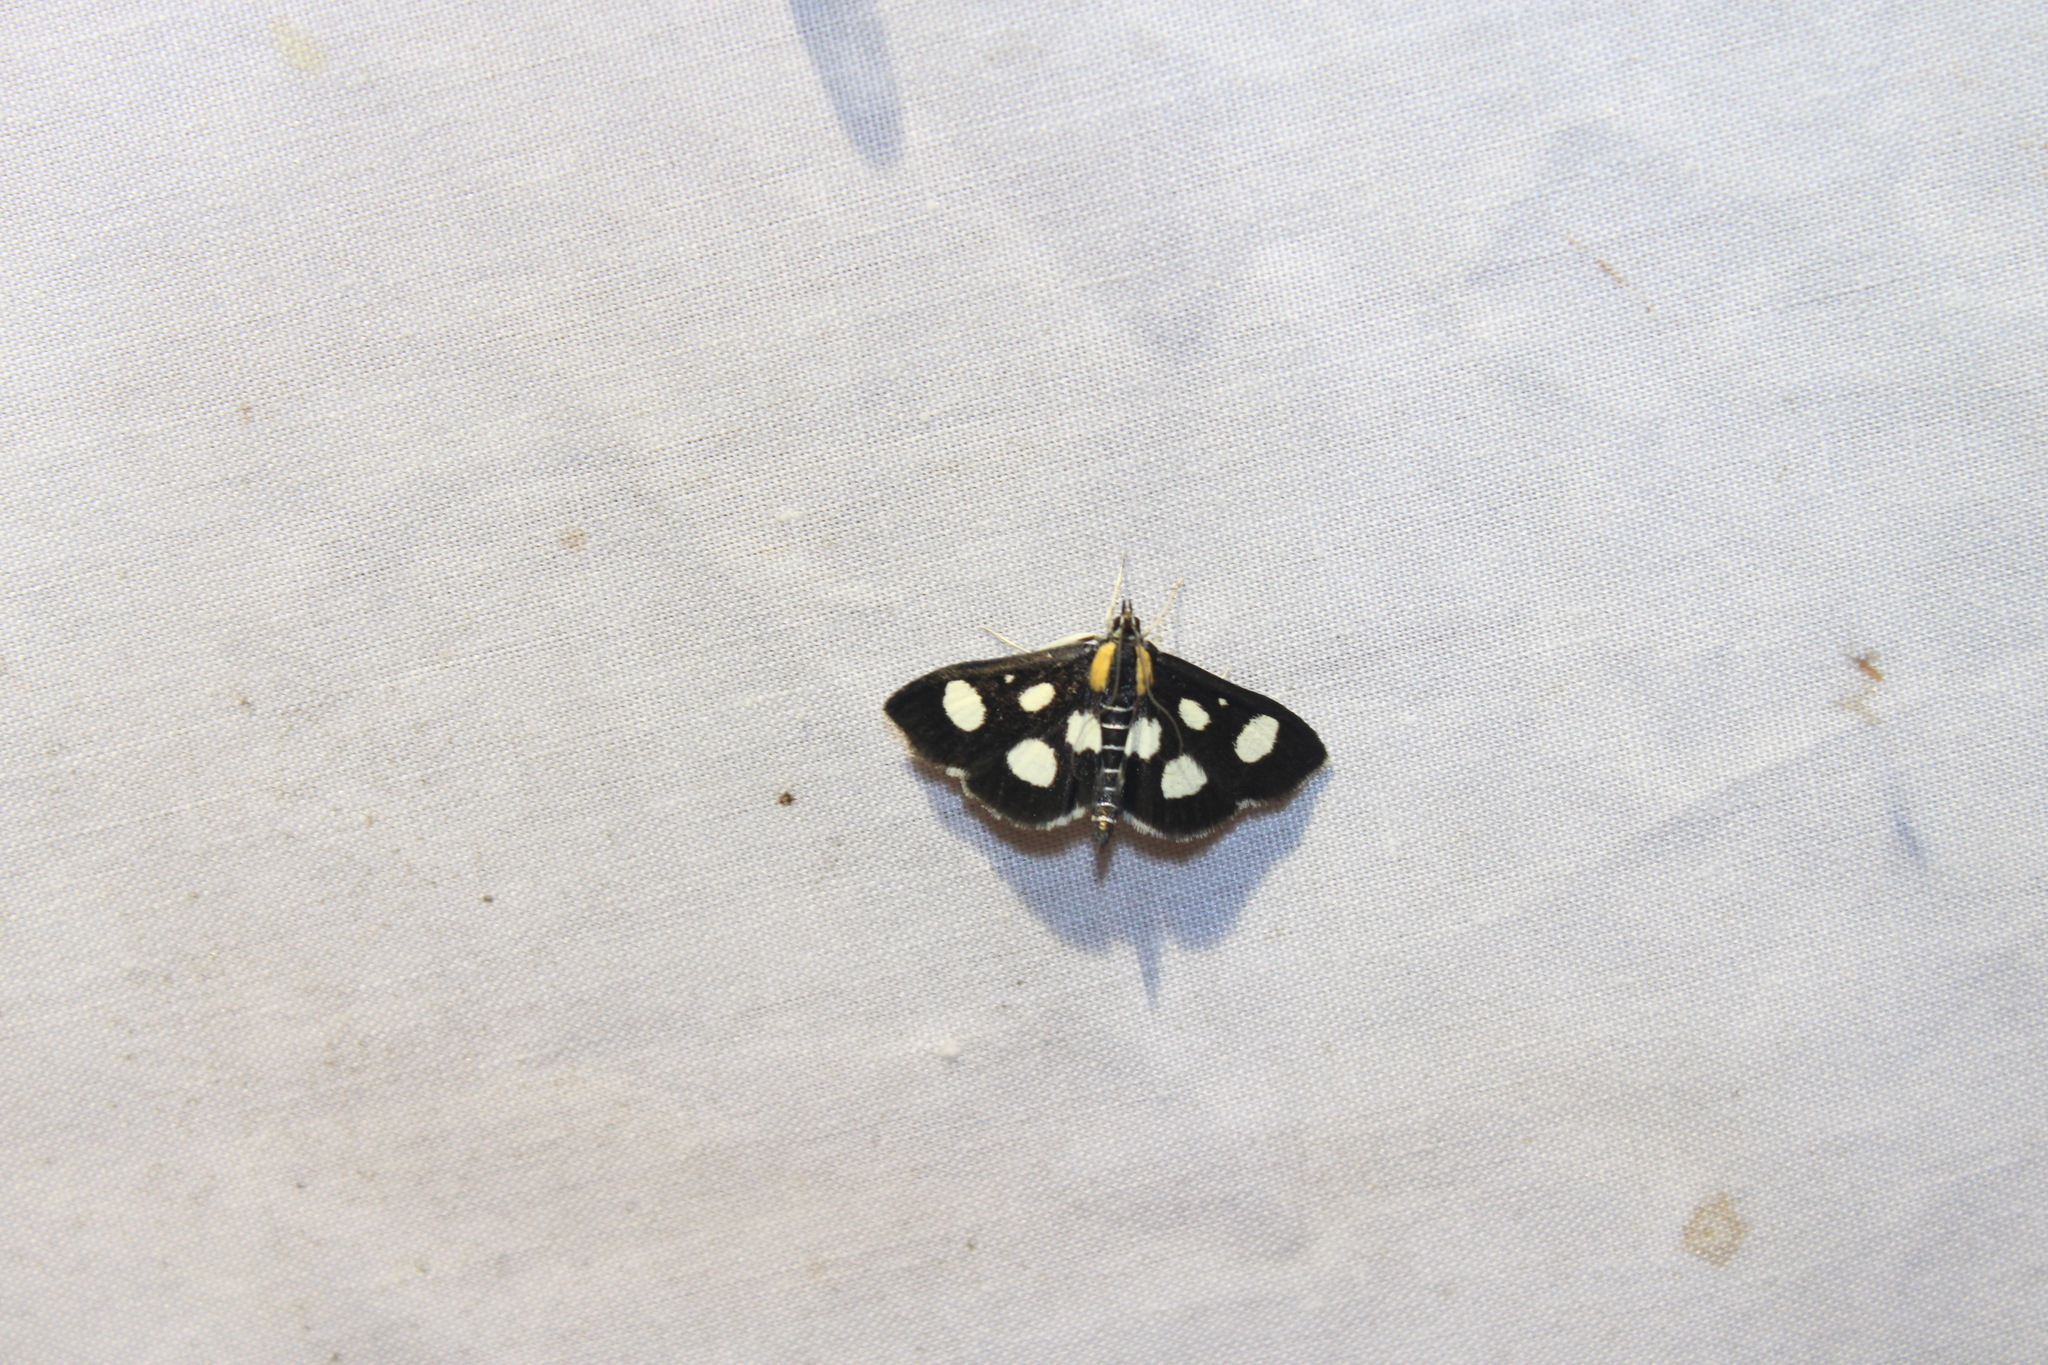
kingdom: Animalia
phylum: Arthropoda
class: Insecta
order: Lepidoptera
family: Crambidae
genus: Anania
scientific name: Anania funebris
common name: White-spotted sable moth
